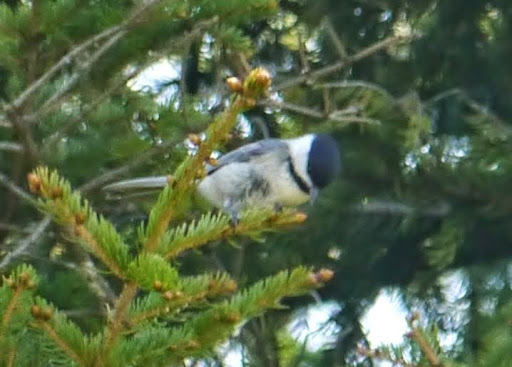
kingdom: Animalia
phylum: Chordata
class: Aves
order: Passeriformes
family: Paridae
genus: Poecile
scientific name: Poecile atricapillus
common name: Black-capped chickadee
